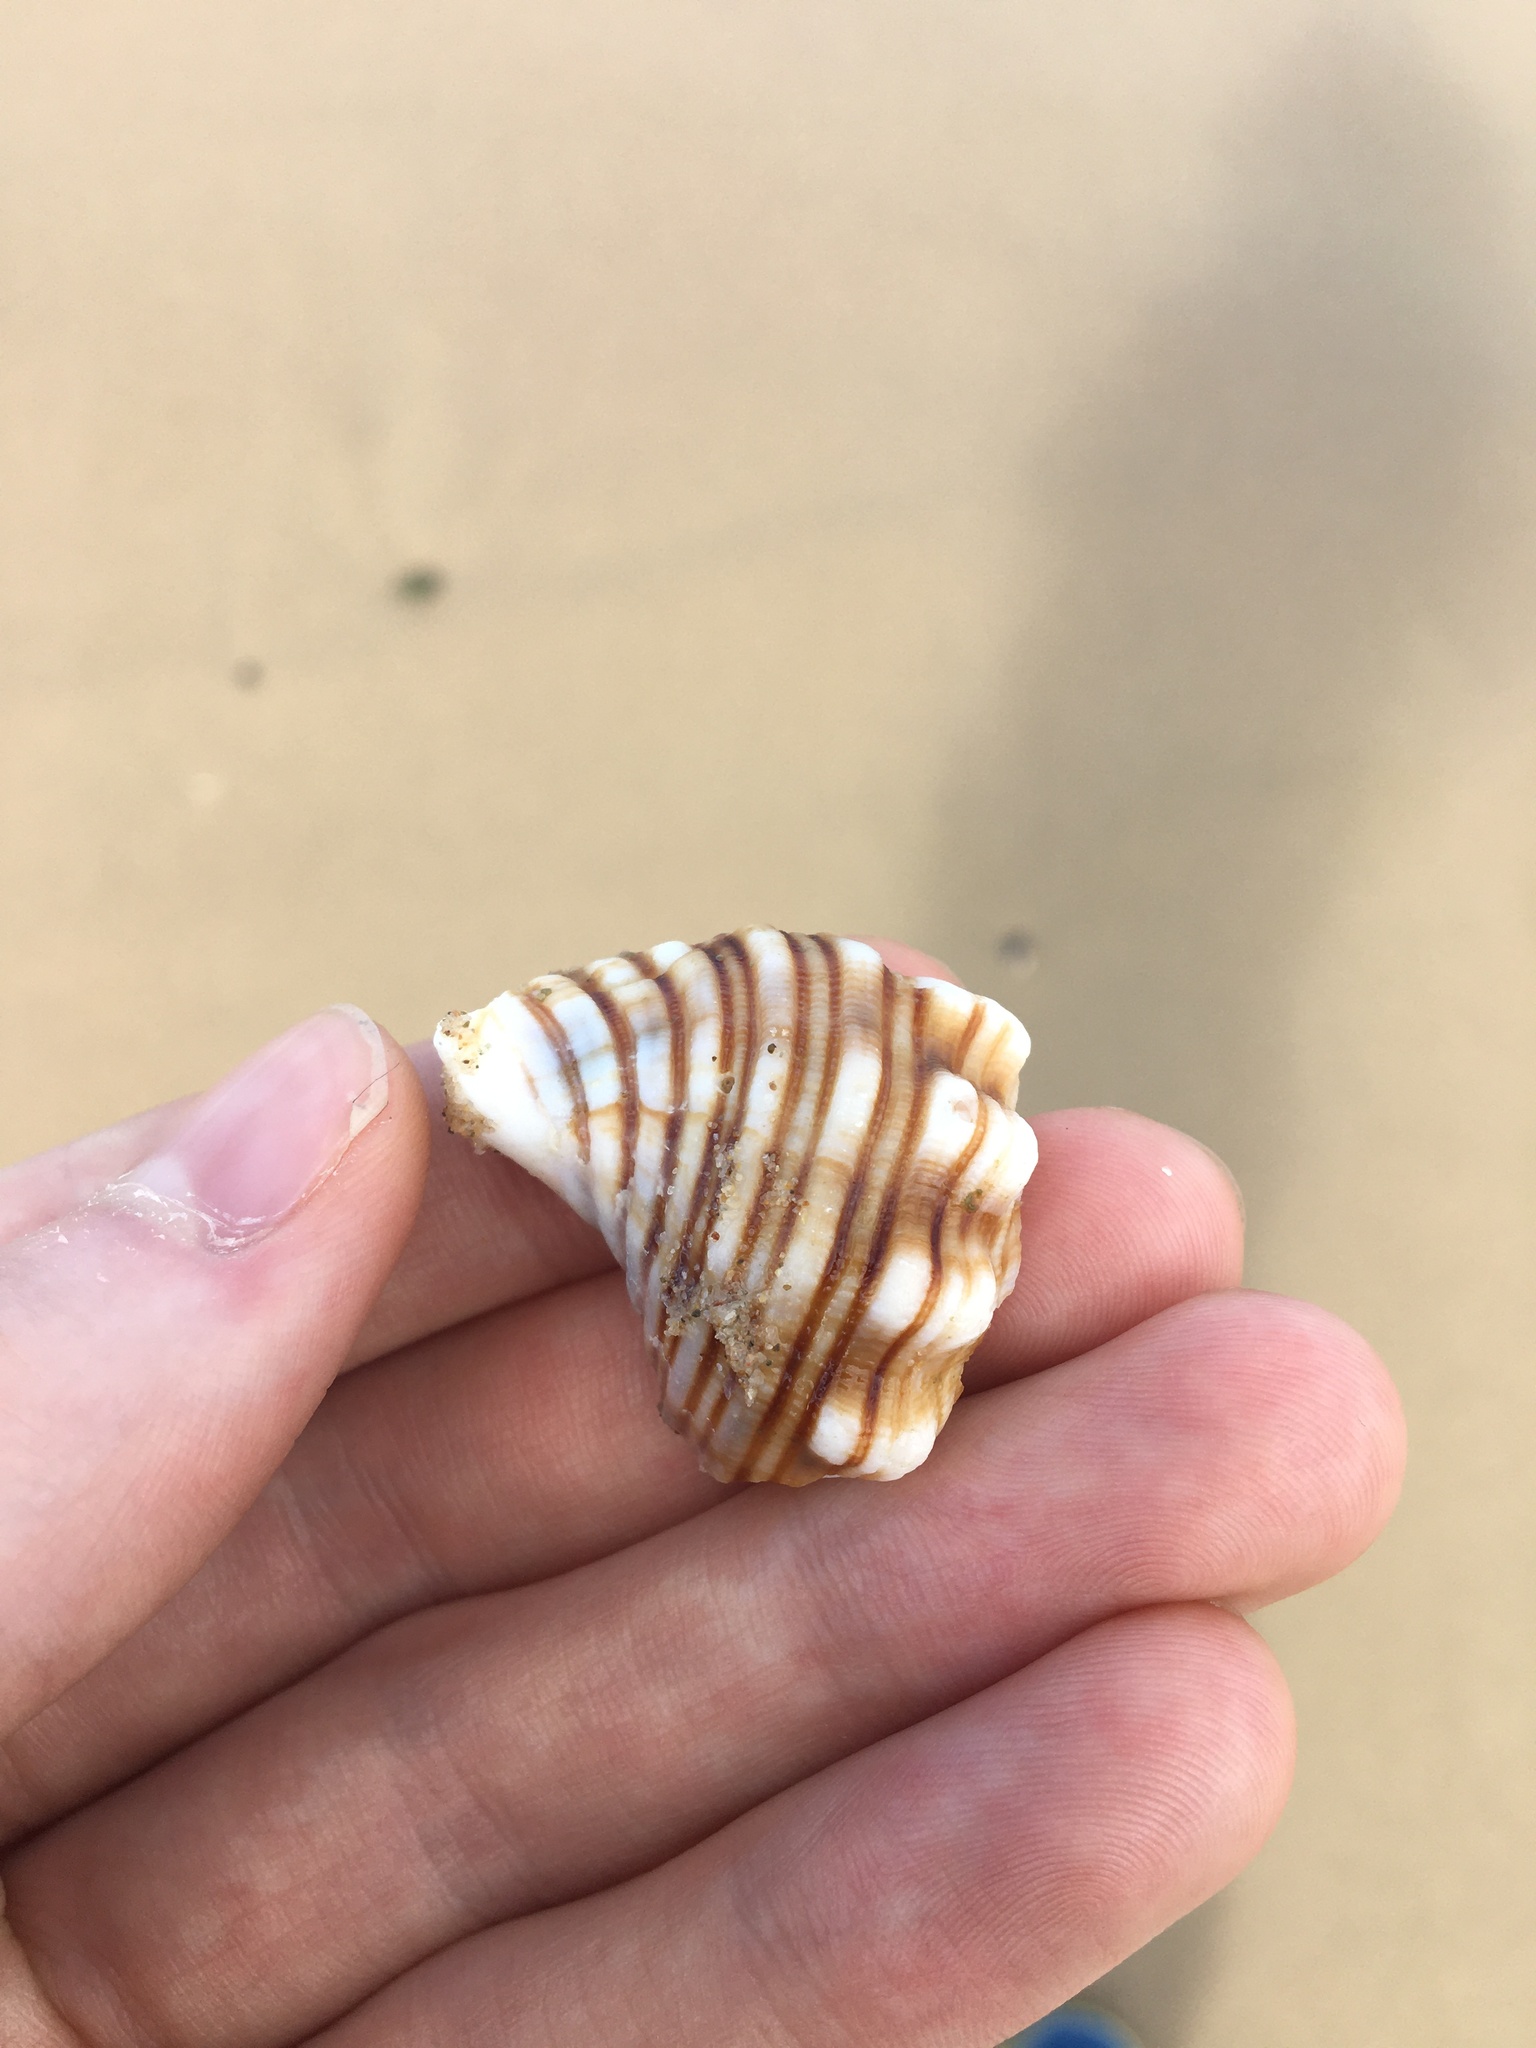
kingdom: Animalia
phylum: Mollusca
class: Gastropoda
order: Littorinimorpha
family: Cymatiidae
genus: Cabestana
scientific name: Cabestana spengleri
